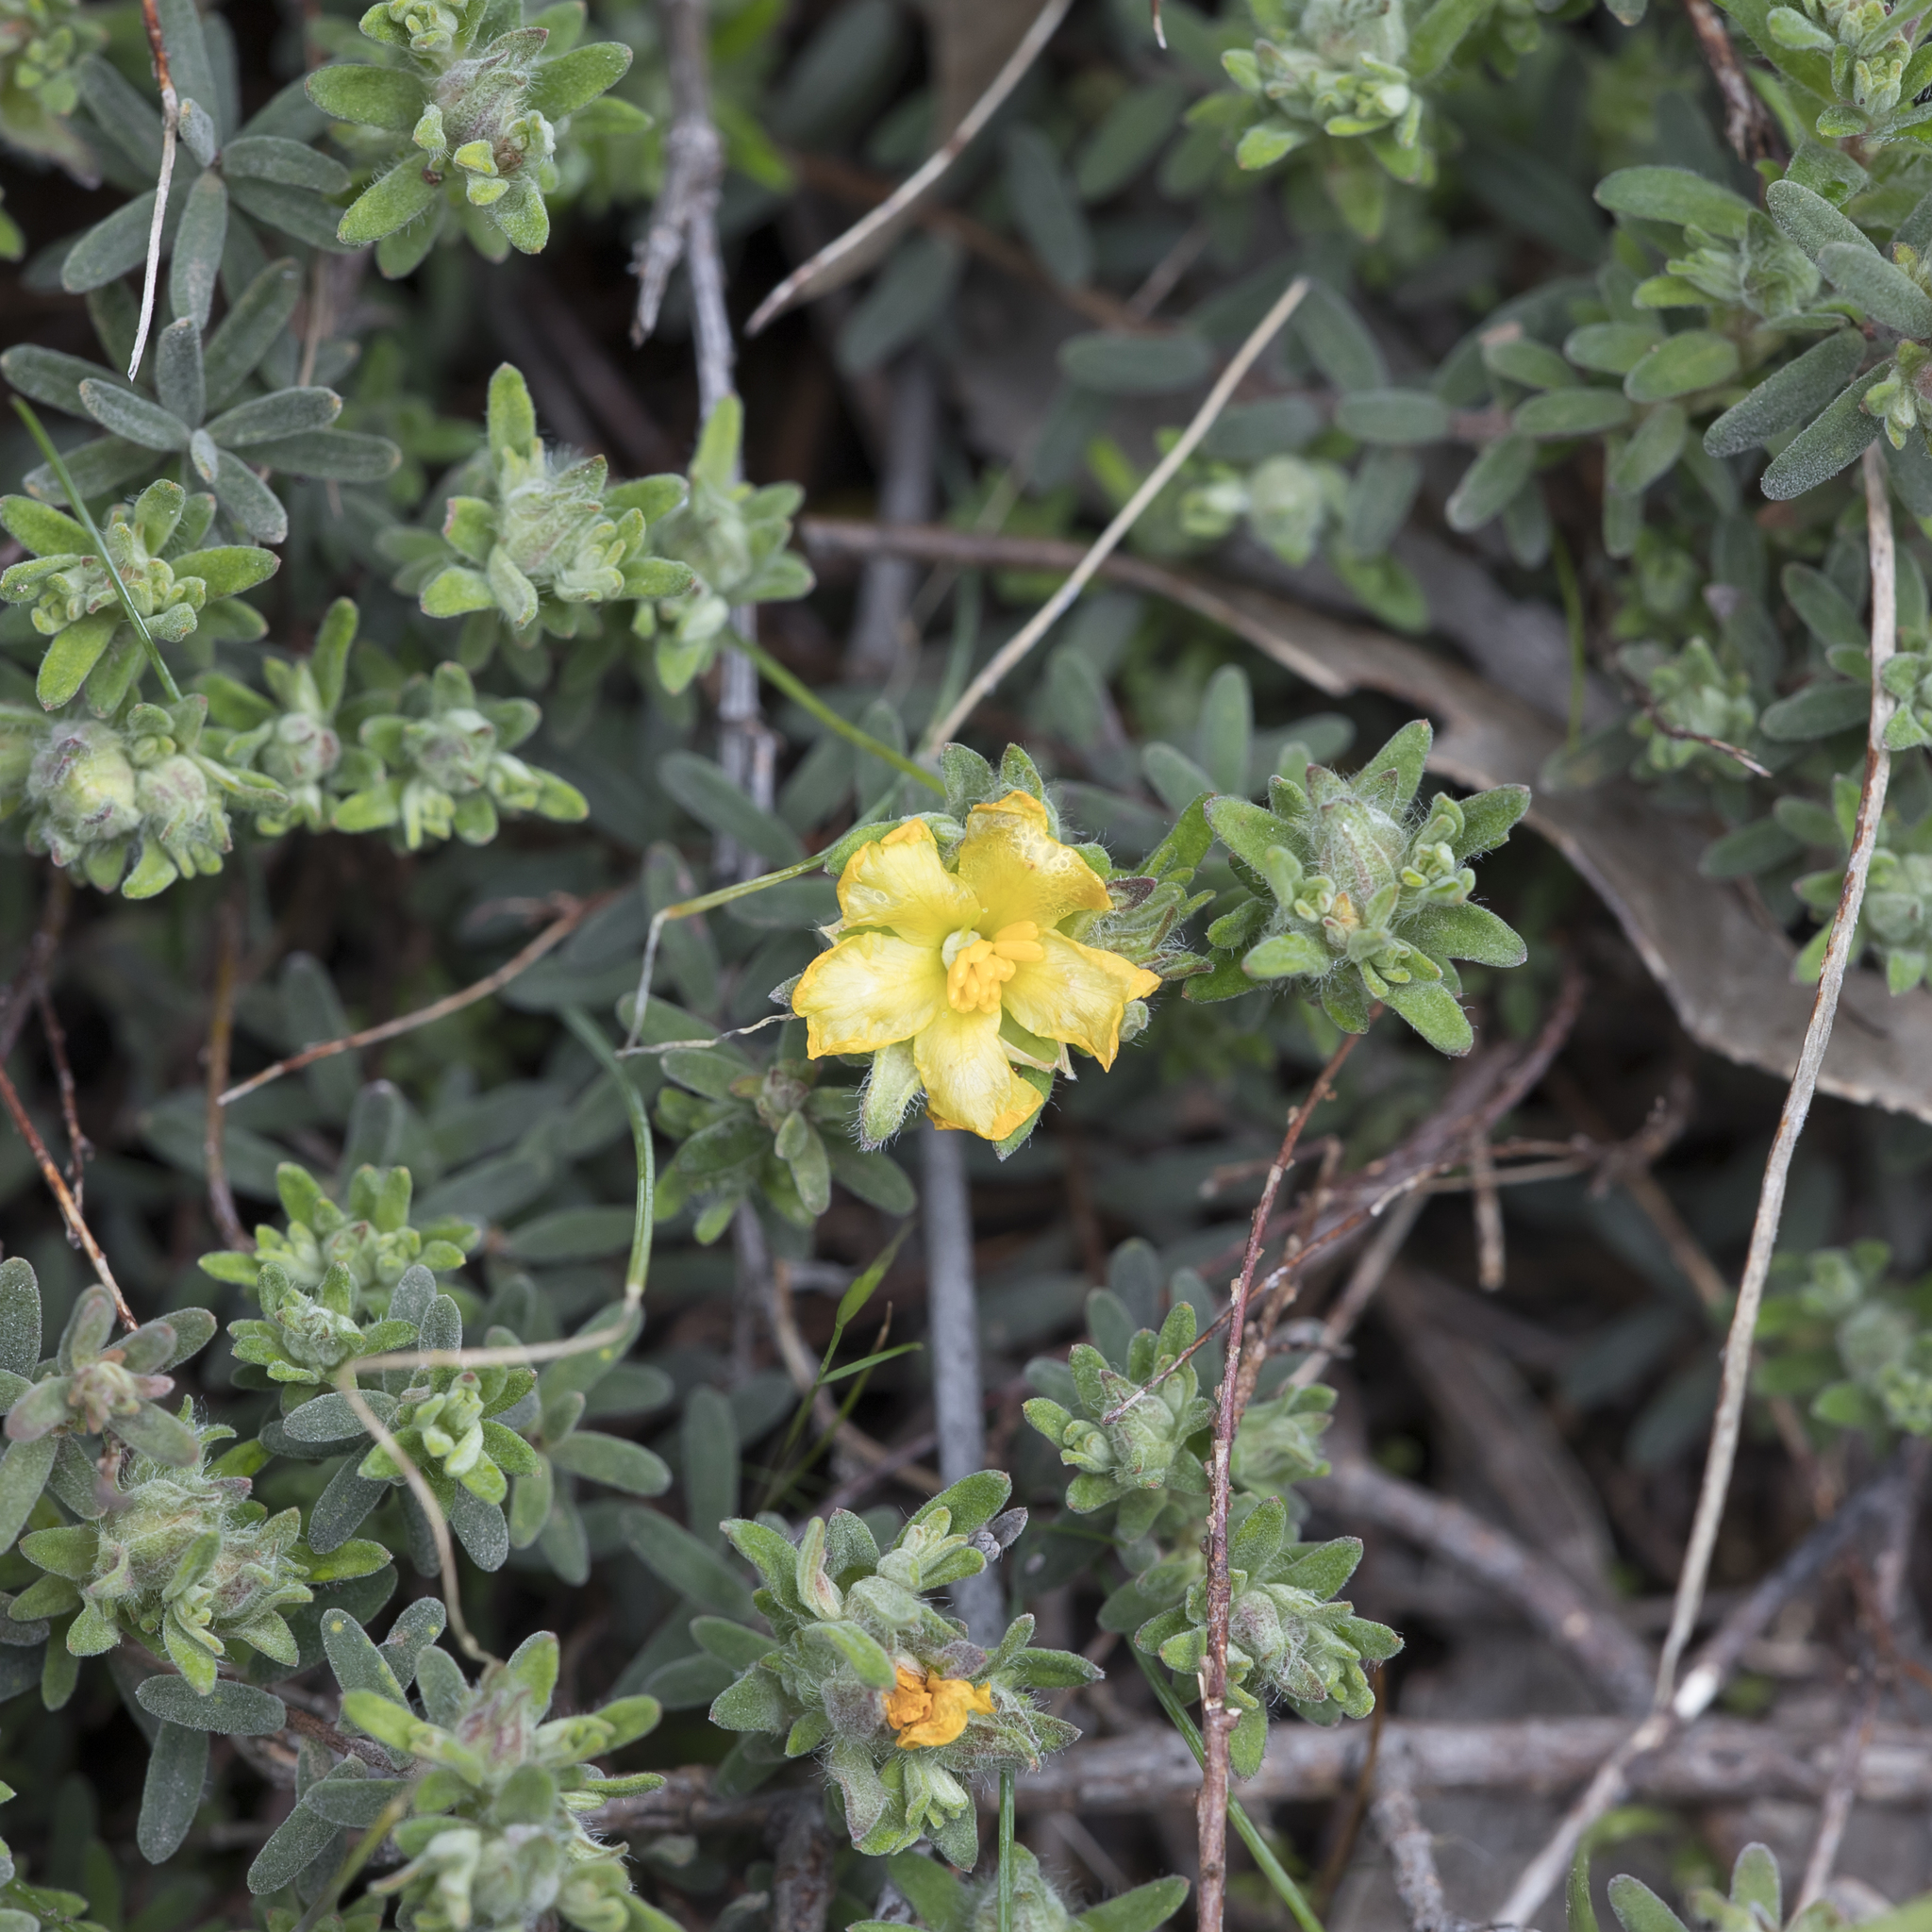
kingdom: Plantae
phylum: Tracheophyta
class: Magnoliopsida
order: Dilleniales
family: Dilleniaceae
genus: Hibbertia
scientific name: Hibbertia crinita
